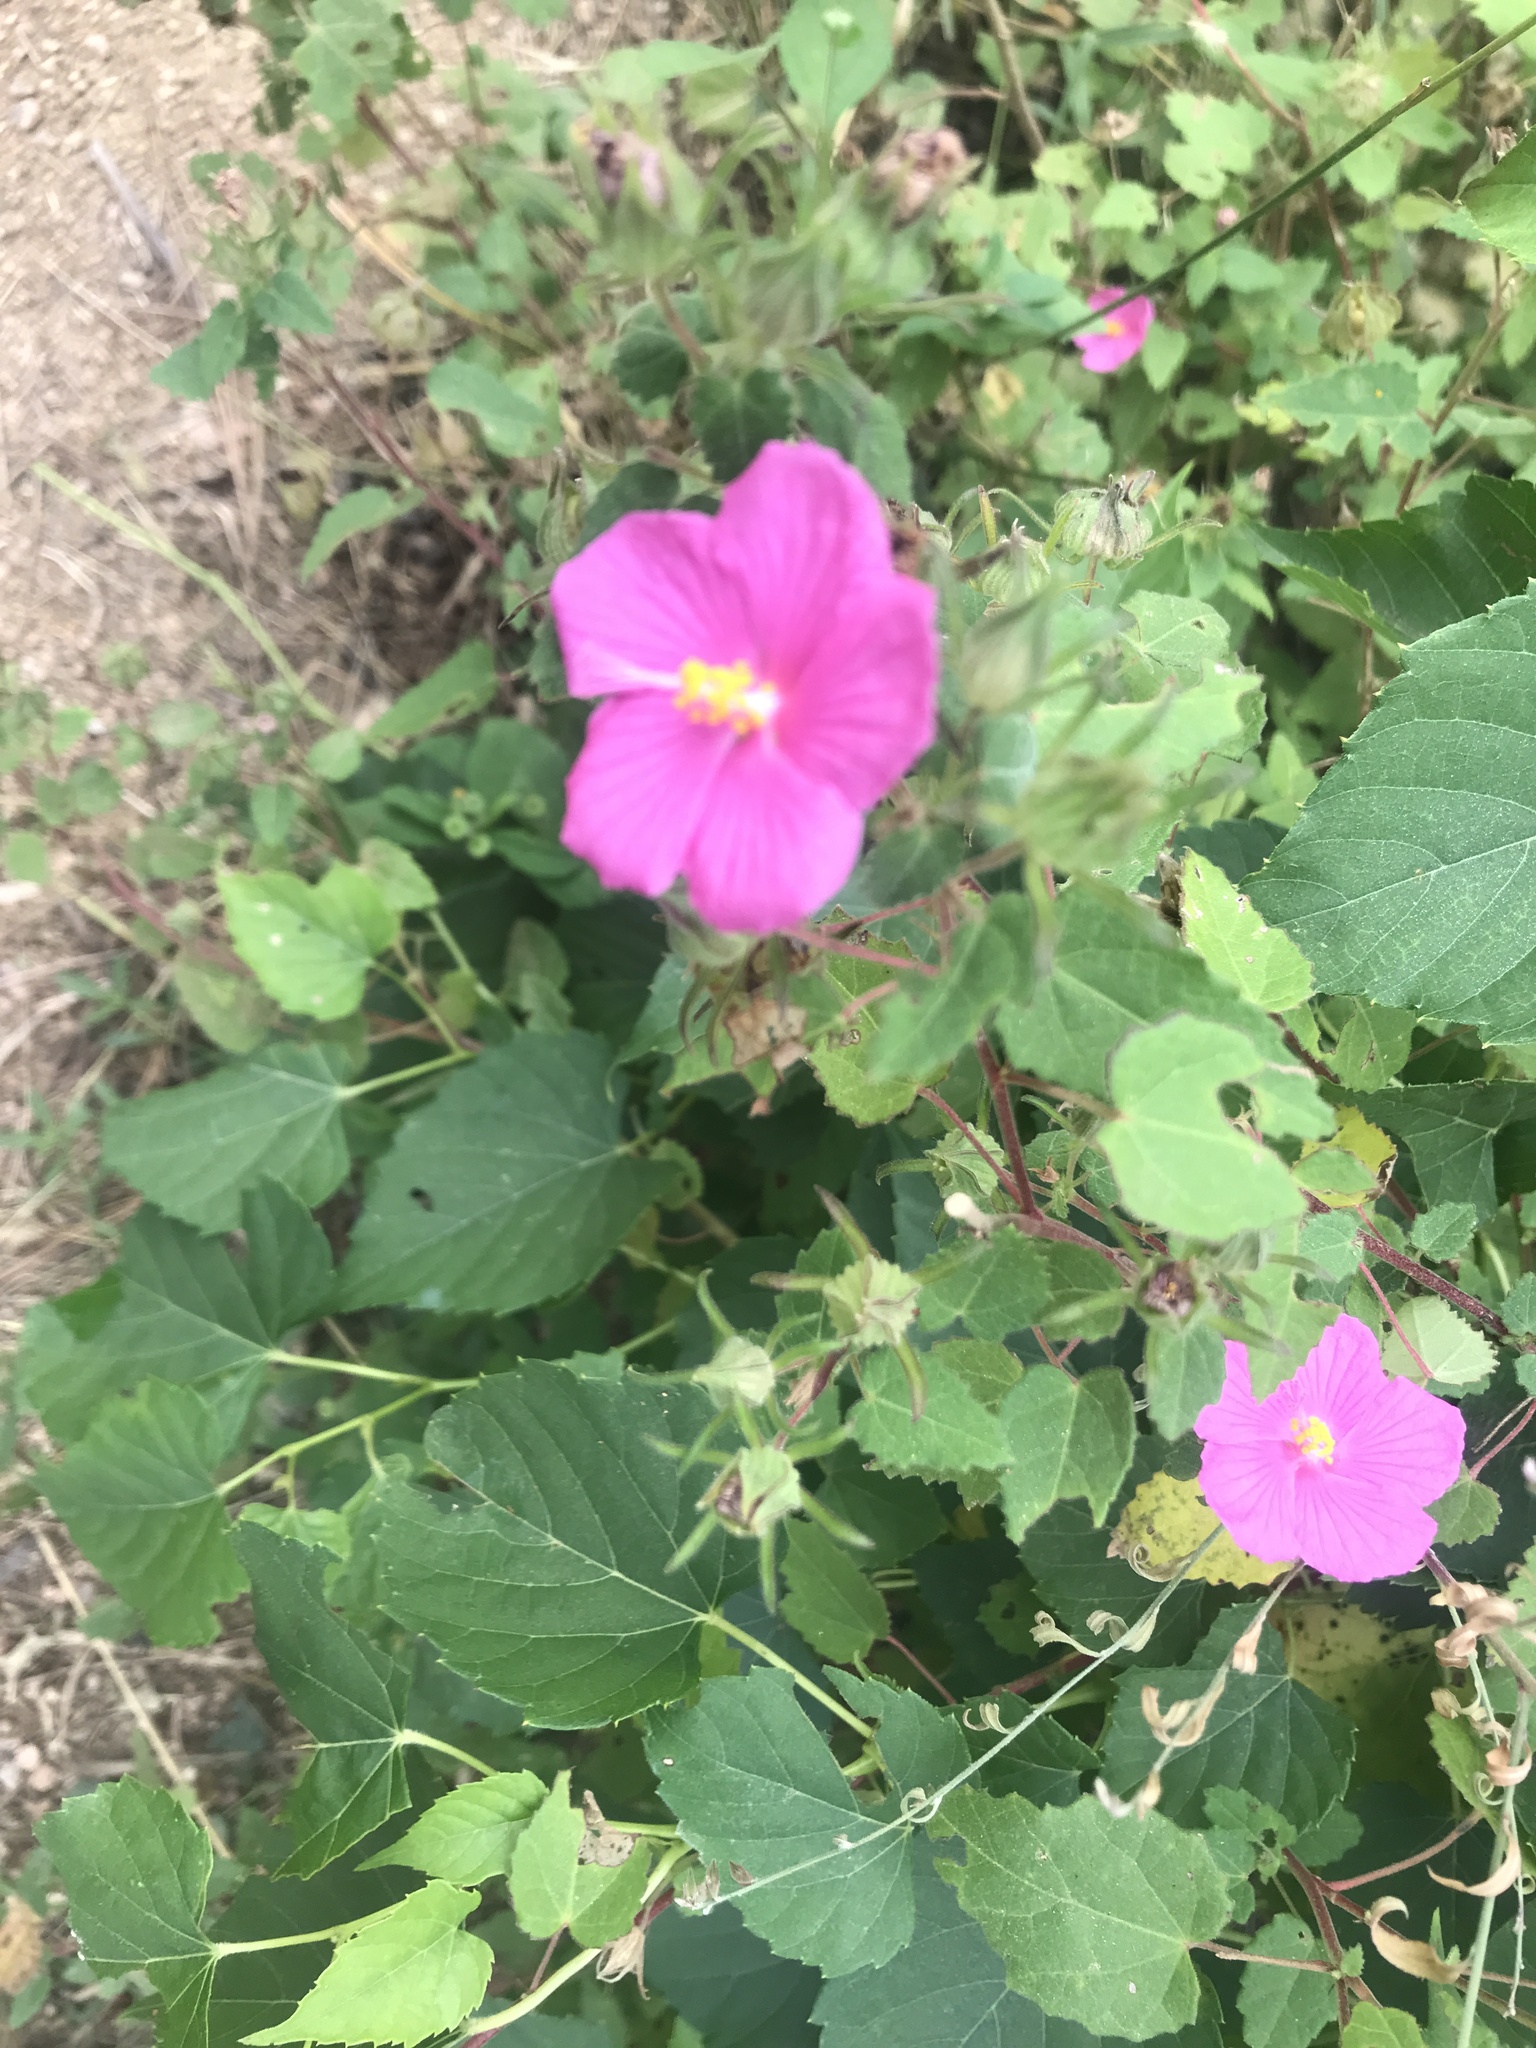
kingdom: Plantae
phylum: Tracheophyta
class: Magnoliopsida
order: Malvales
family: Malvaceae
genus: Pavonia
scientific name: Pavonia lasiopetala
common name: Texas swamp-mallow
